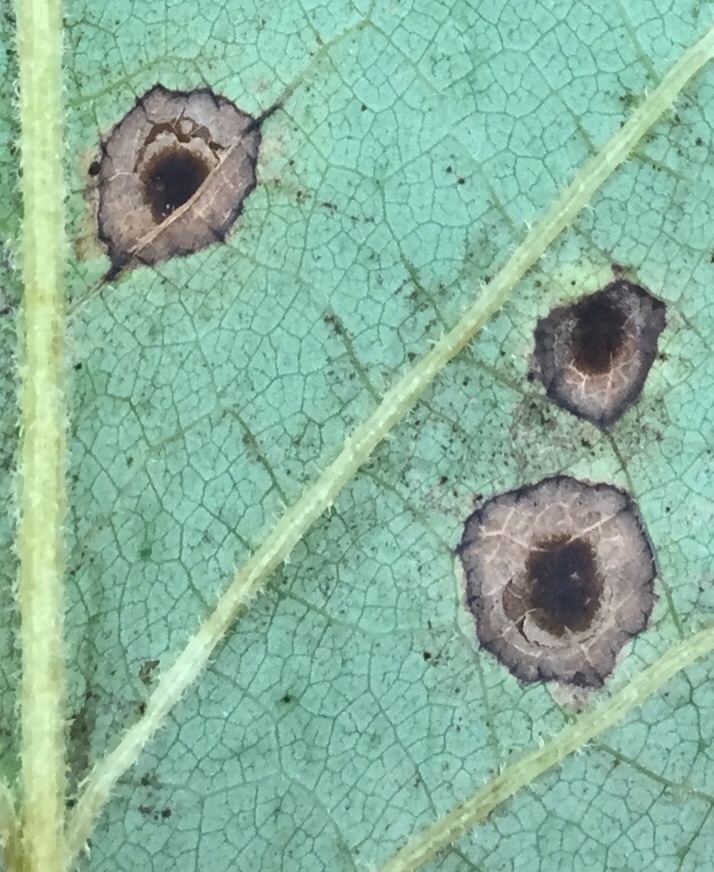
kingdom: Animalia
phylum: Arthropoda
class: Insecta
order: Diptera
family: Cecidomyiidae
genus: Resseliella
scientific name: Resseliella liriodendri
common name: Tulip tree leaf spot gall midge
